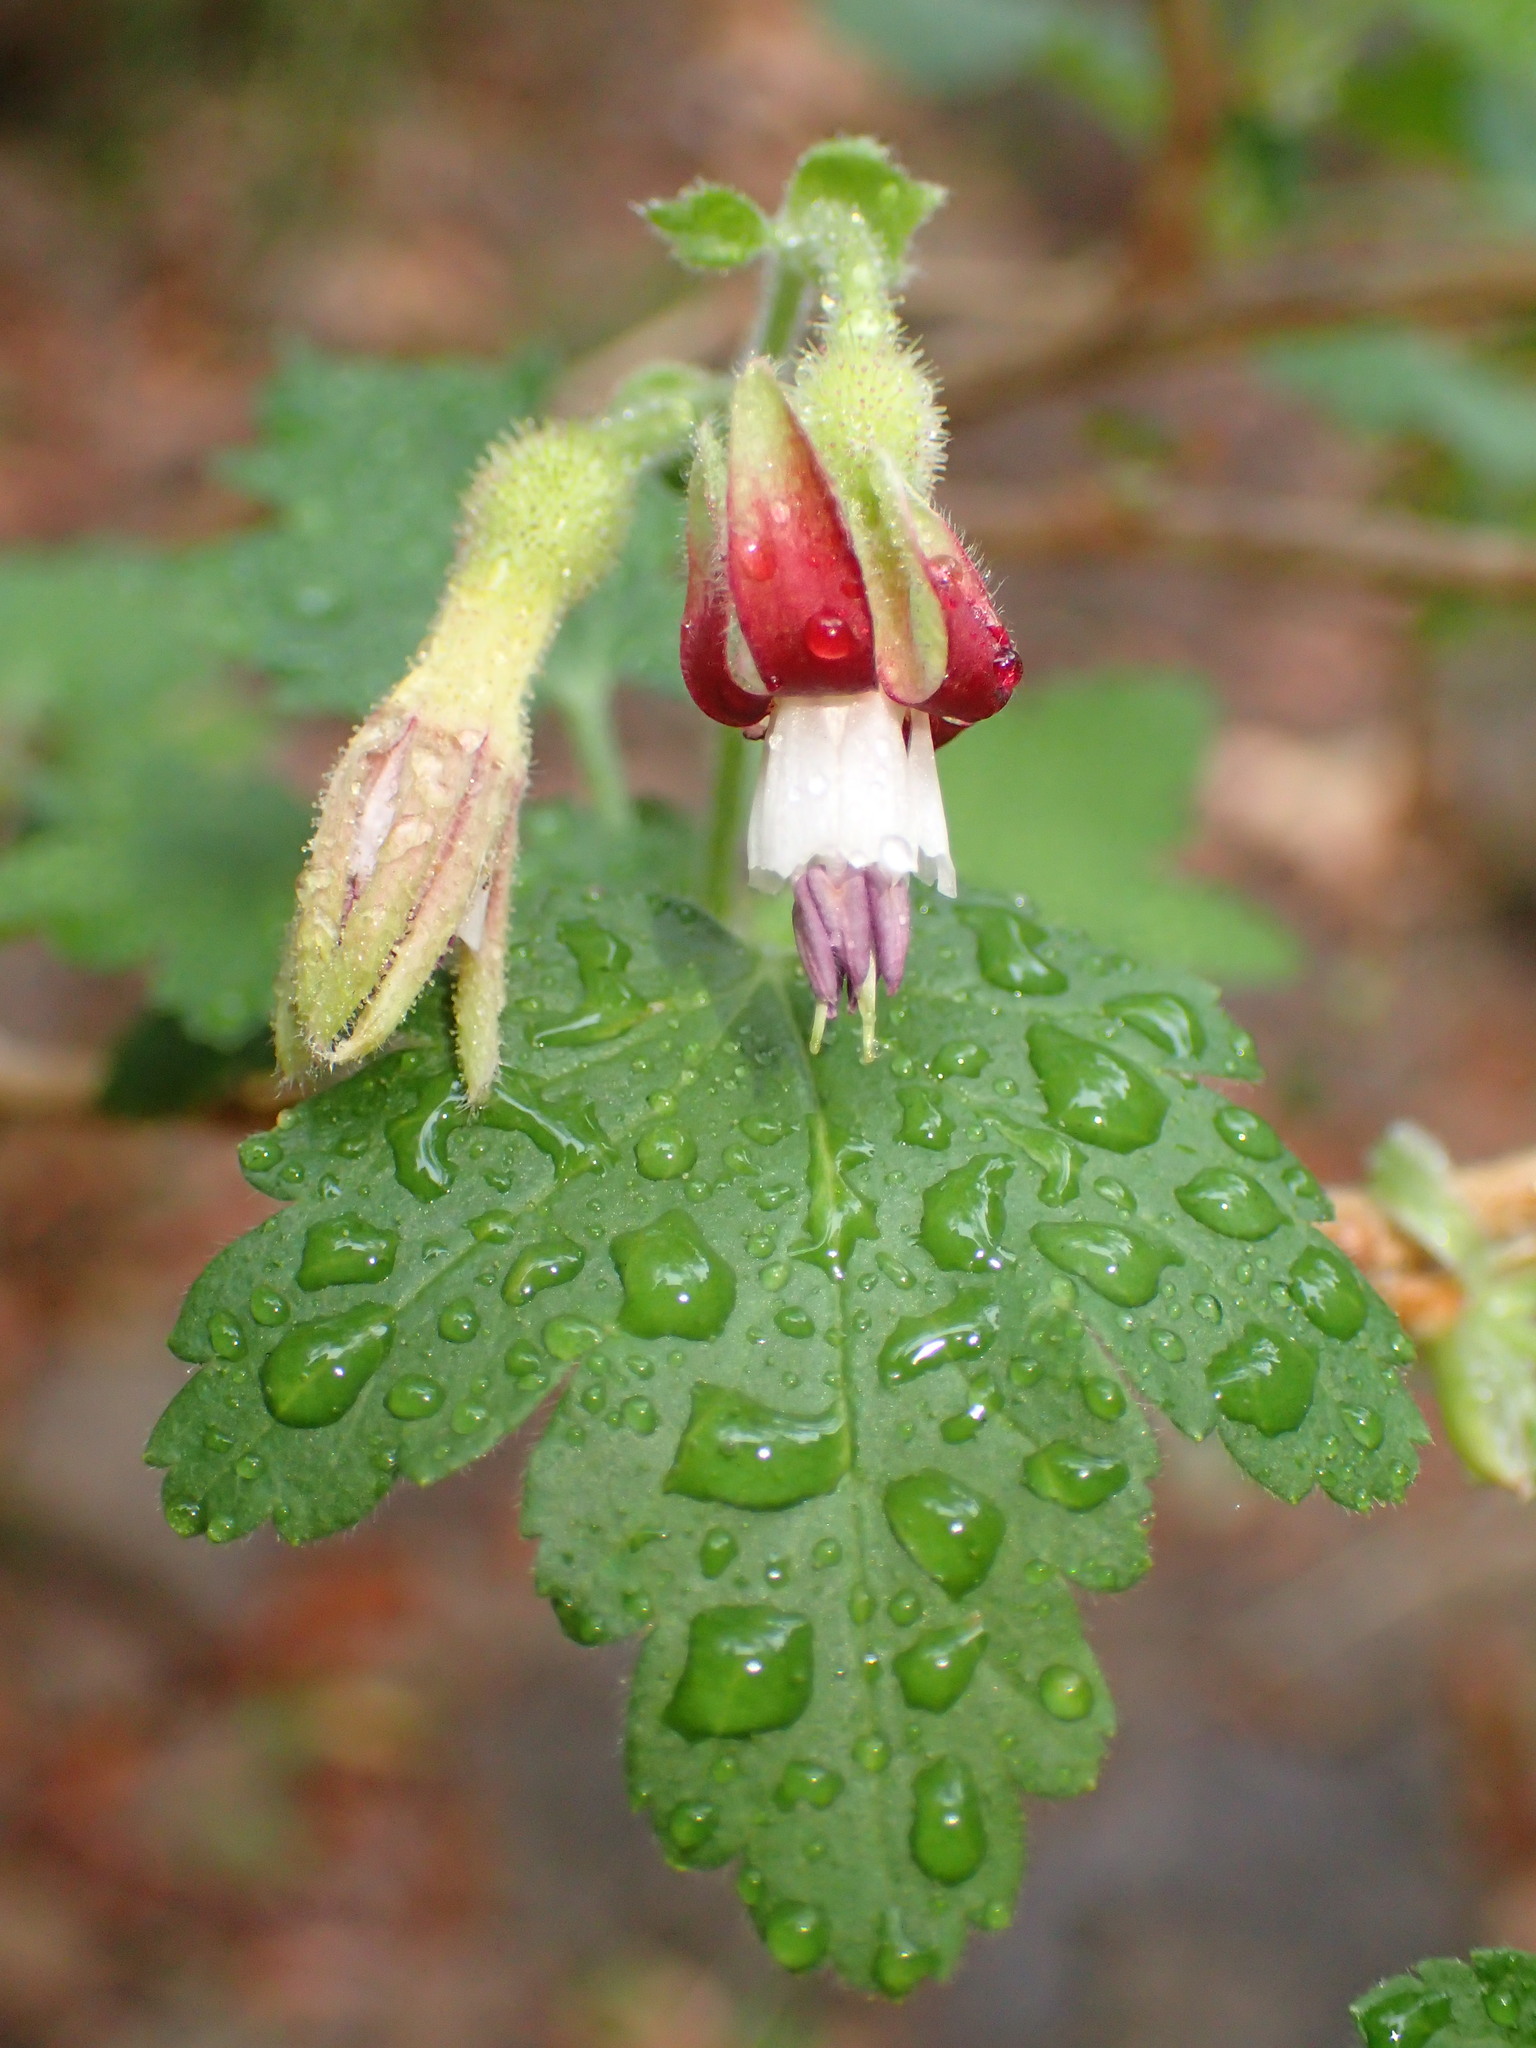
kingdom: Plantae
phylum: Tracheophyta
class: Magnoliopsida
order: Saxifragales
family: Grossulariaceae
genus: Ribes
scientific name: Ribes amarum
